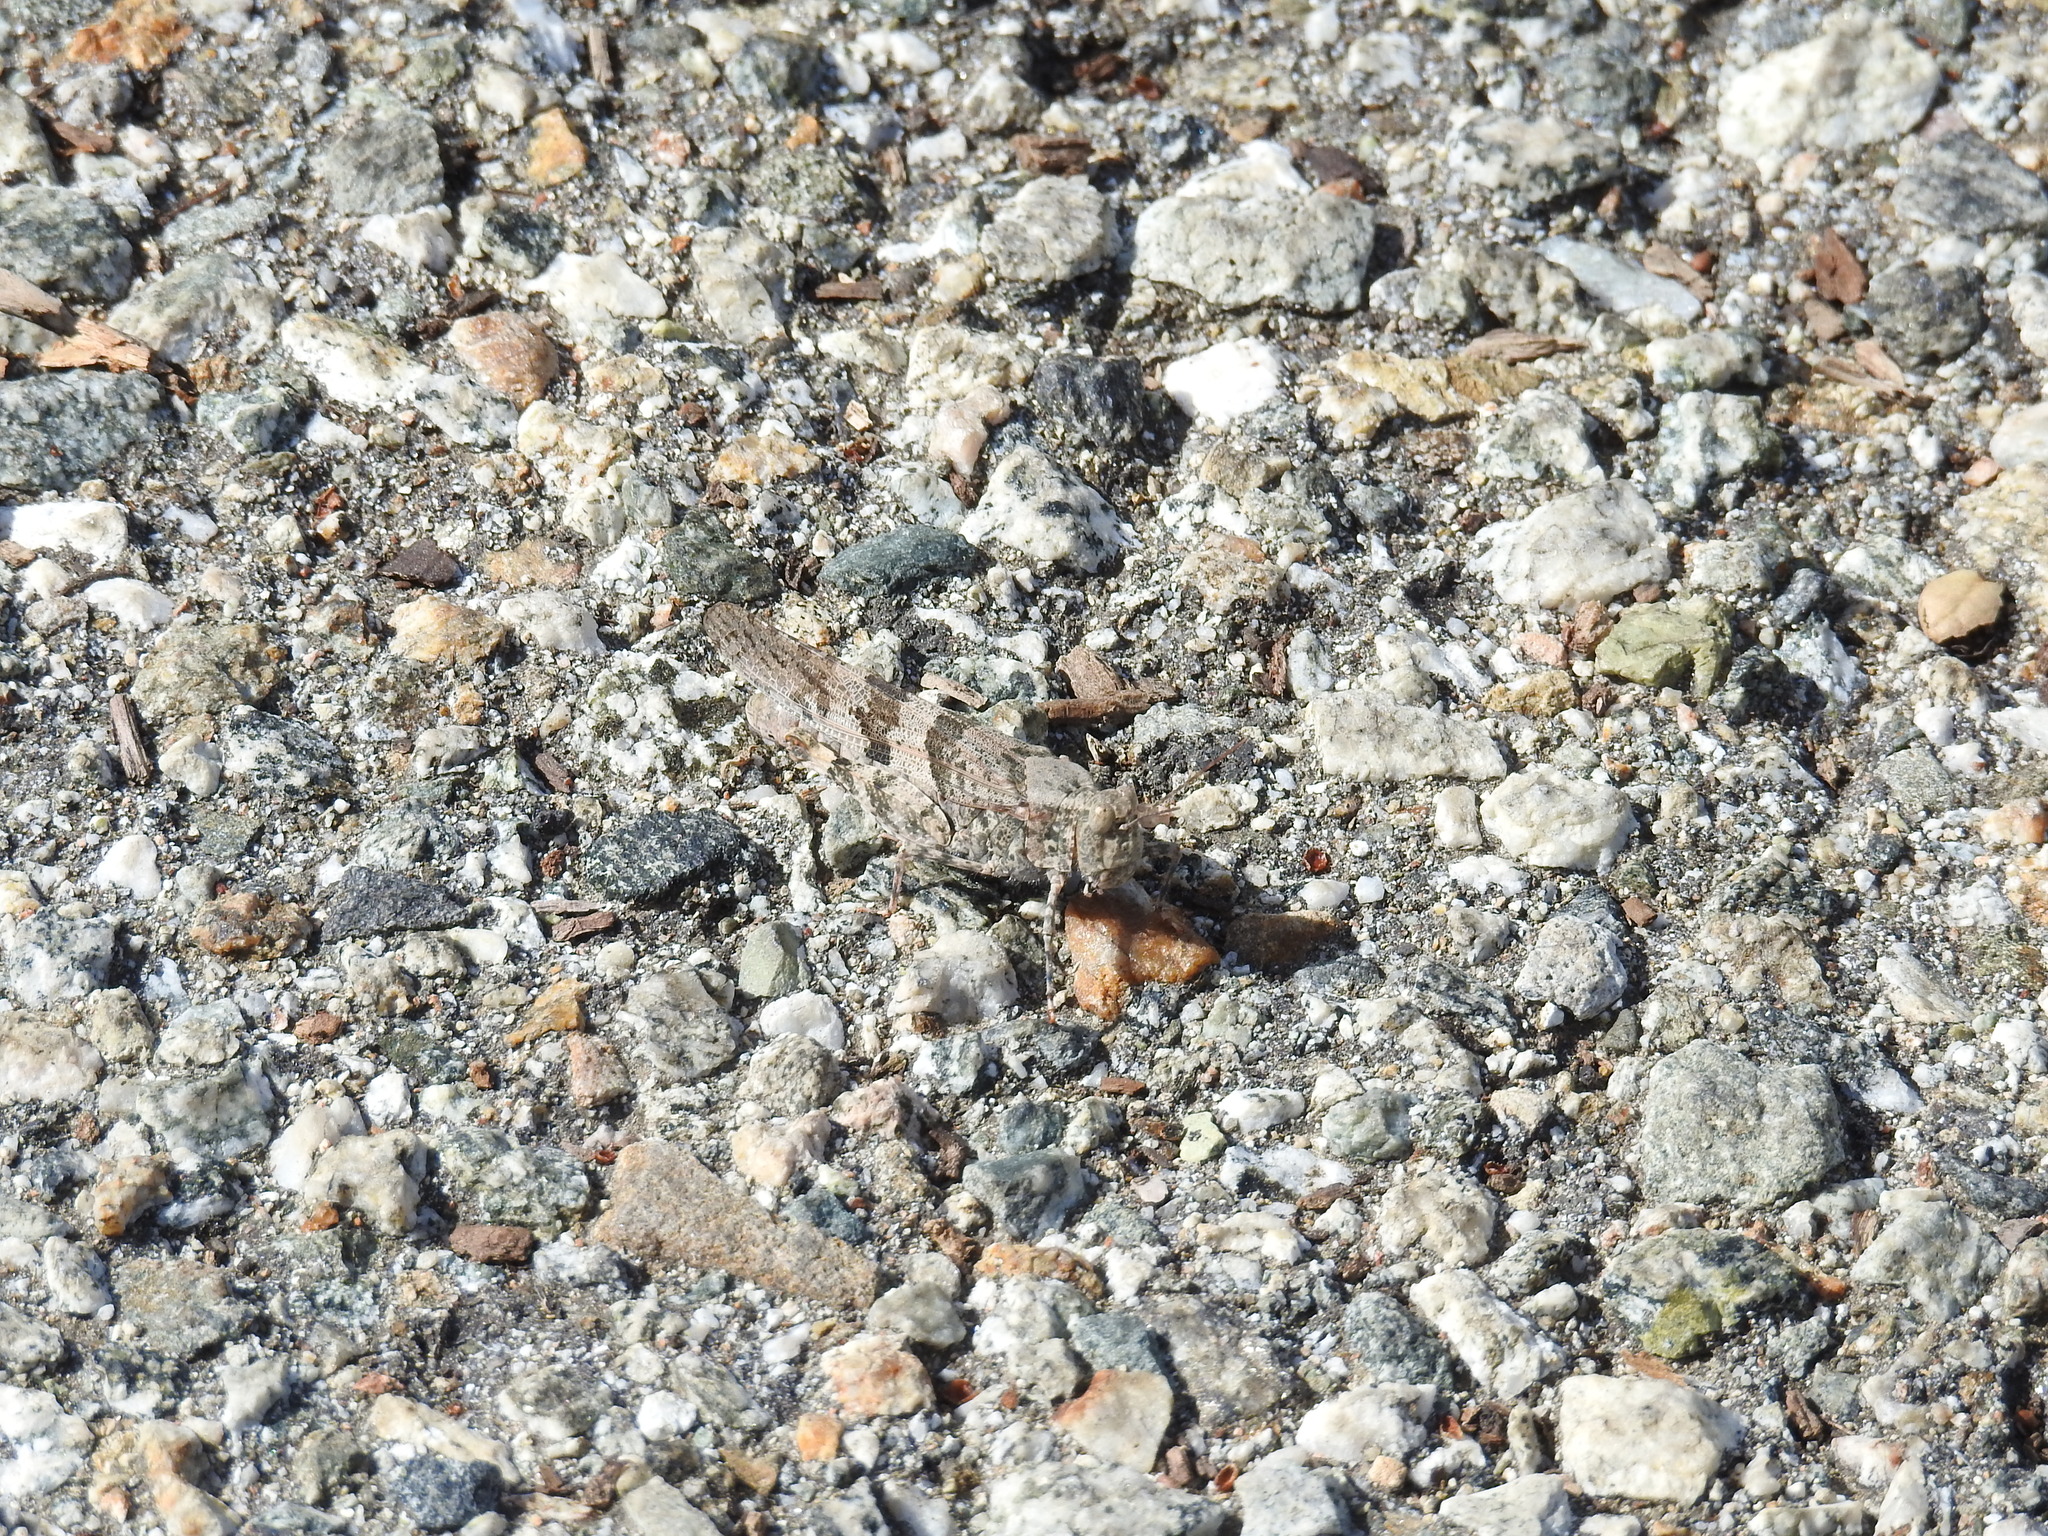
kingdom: Animalia
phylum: Arthropoda
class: Insecta
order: Orthoptera
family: Acrididae
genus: Trimerotropis
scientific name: Trimerotropis pallidipennis
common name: Pallid-winged grasshopper
